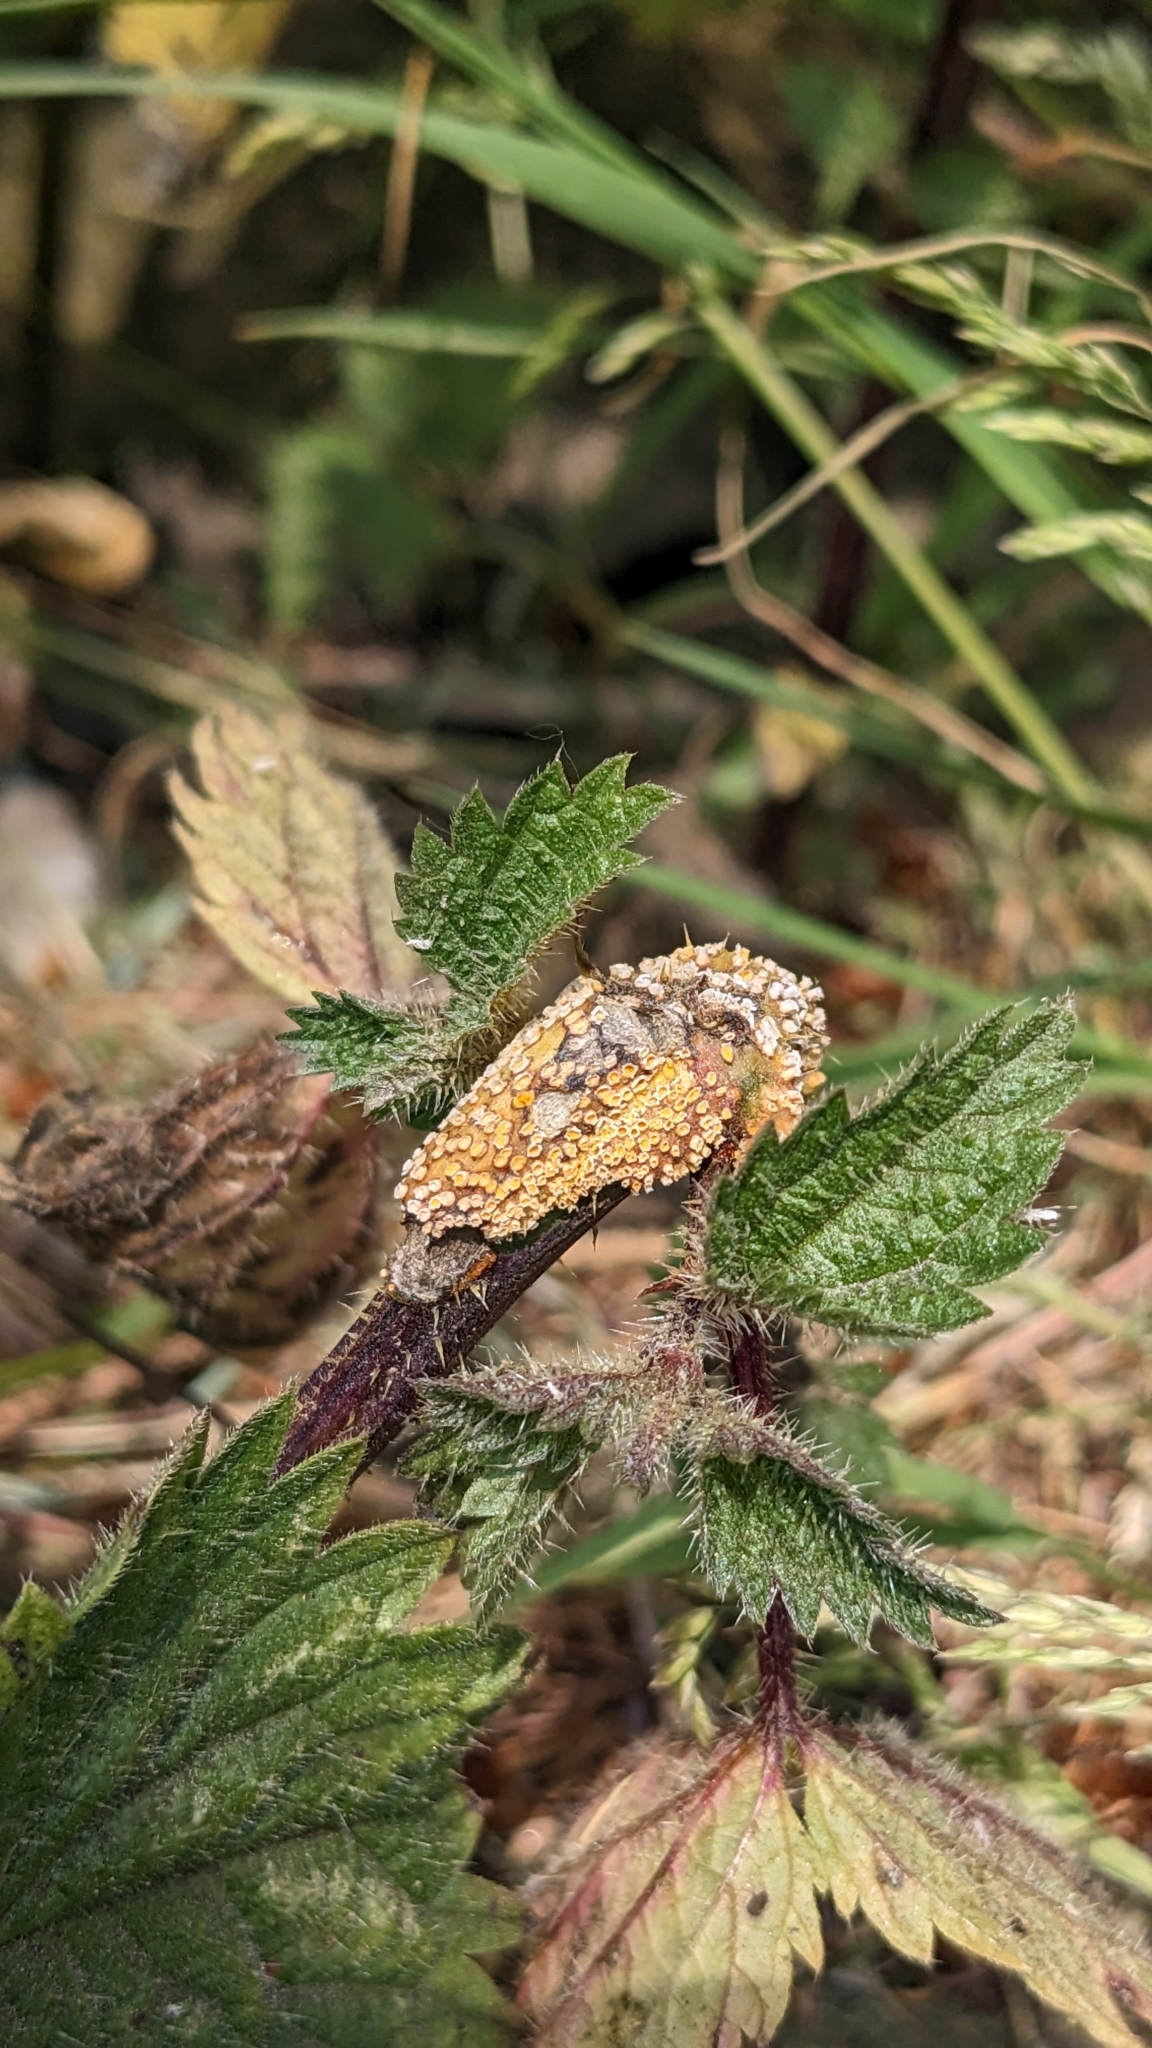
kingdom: Fungi
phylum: Basidiomycota
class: Pucciniomycetes
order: Pucciniales
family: Pucciniaceae
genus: Puccinia
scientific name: Puccinia urticata
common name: Nettle clustercup rust fungus
